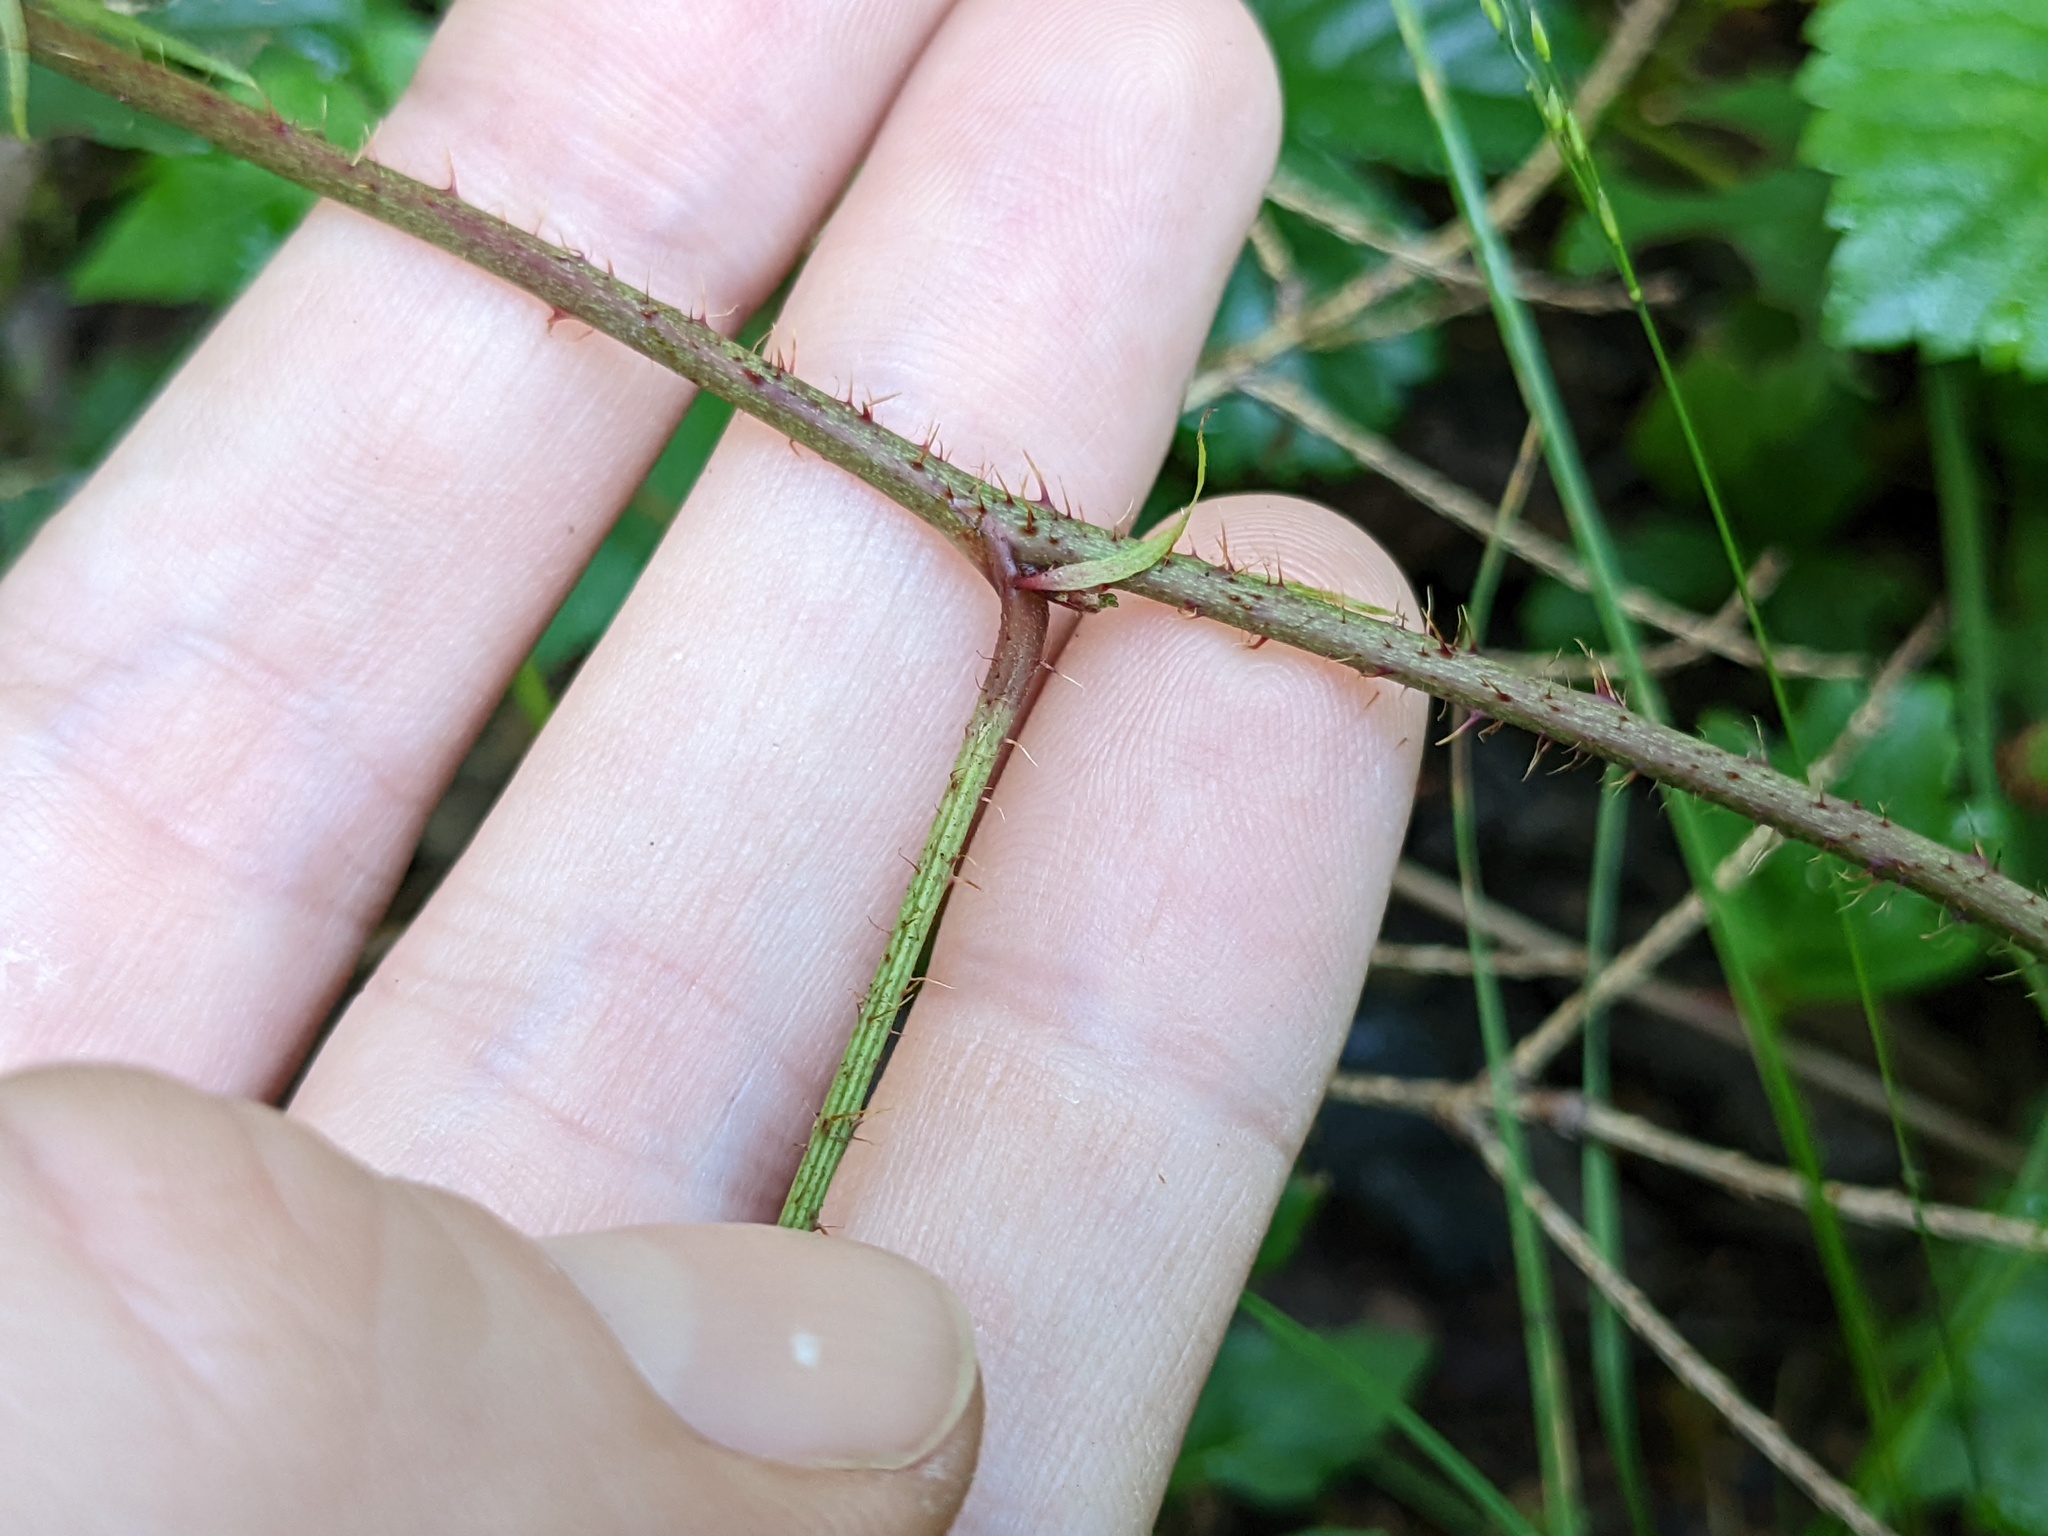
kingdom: Plantae
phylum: Tracheophyta
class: Magnoliopsida
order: Rosales
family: Rosaceae
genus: Rubus
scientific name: Rubus hispidus
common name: Running blackberry
